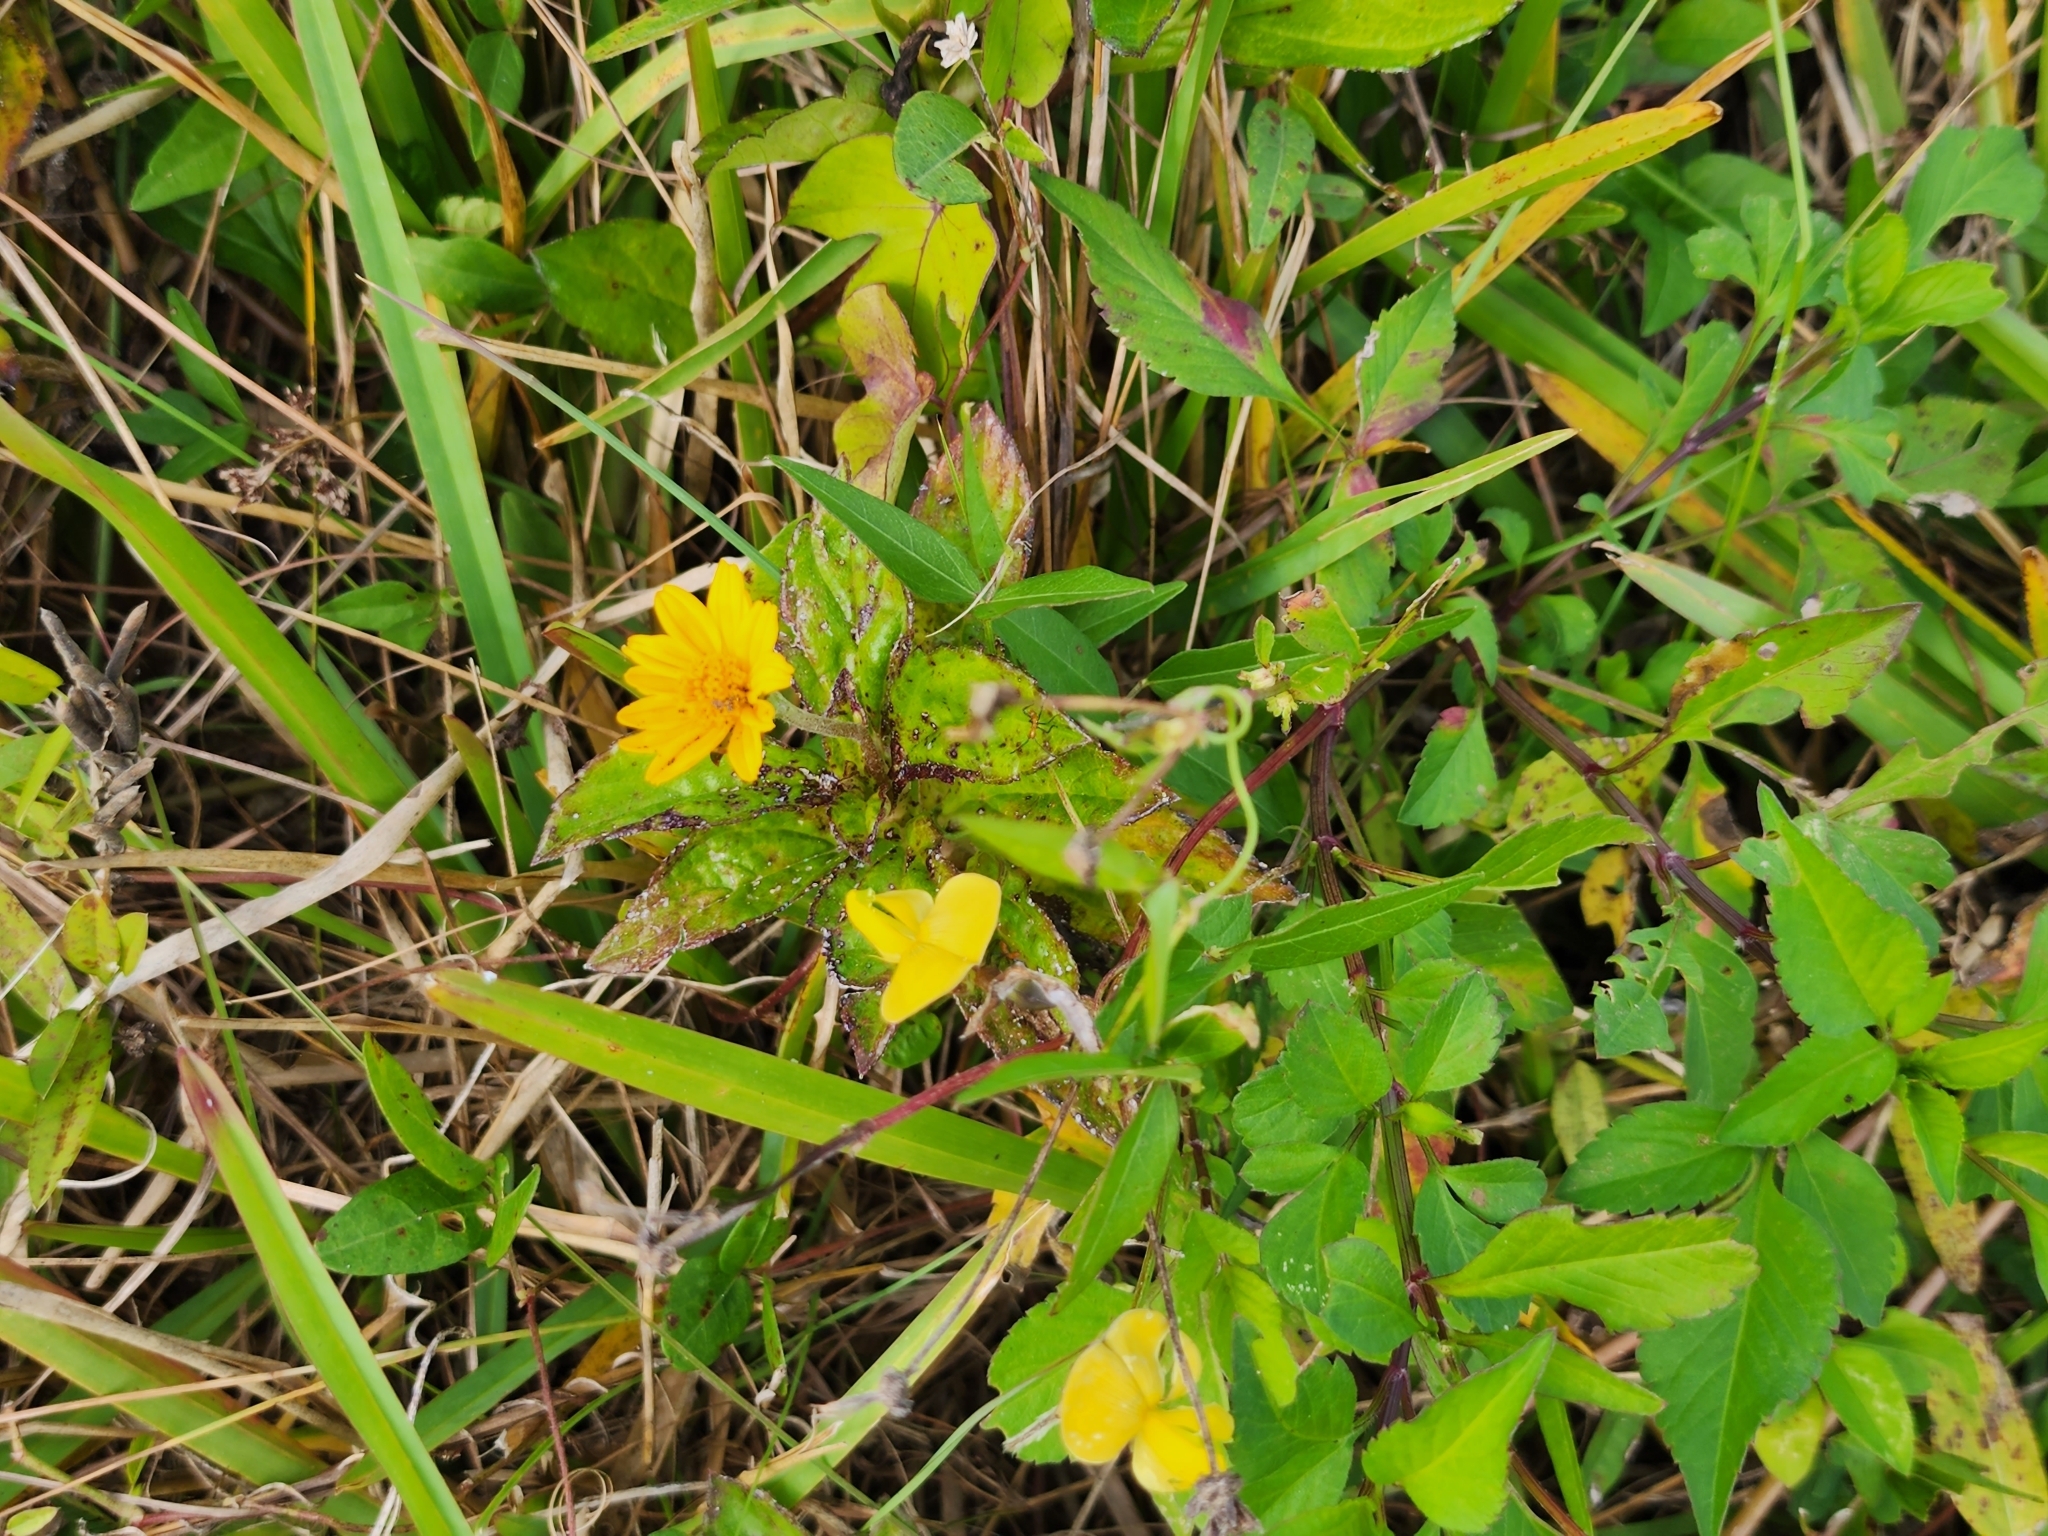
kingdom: Plantae
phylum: Tracheophyta
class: Magnoliopsida
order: Asterales
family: Asteraceae
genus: Sphagneticola
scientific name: Sphagneticola trilobata
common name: Bay biscayne creeping-oxeye
